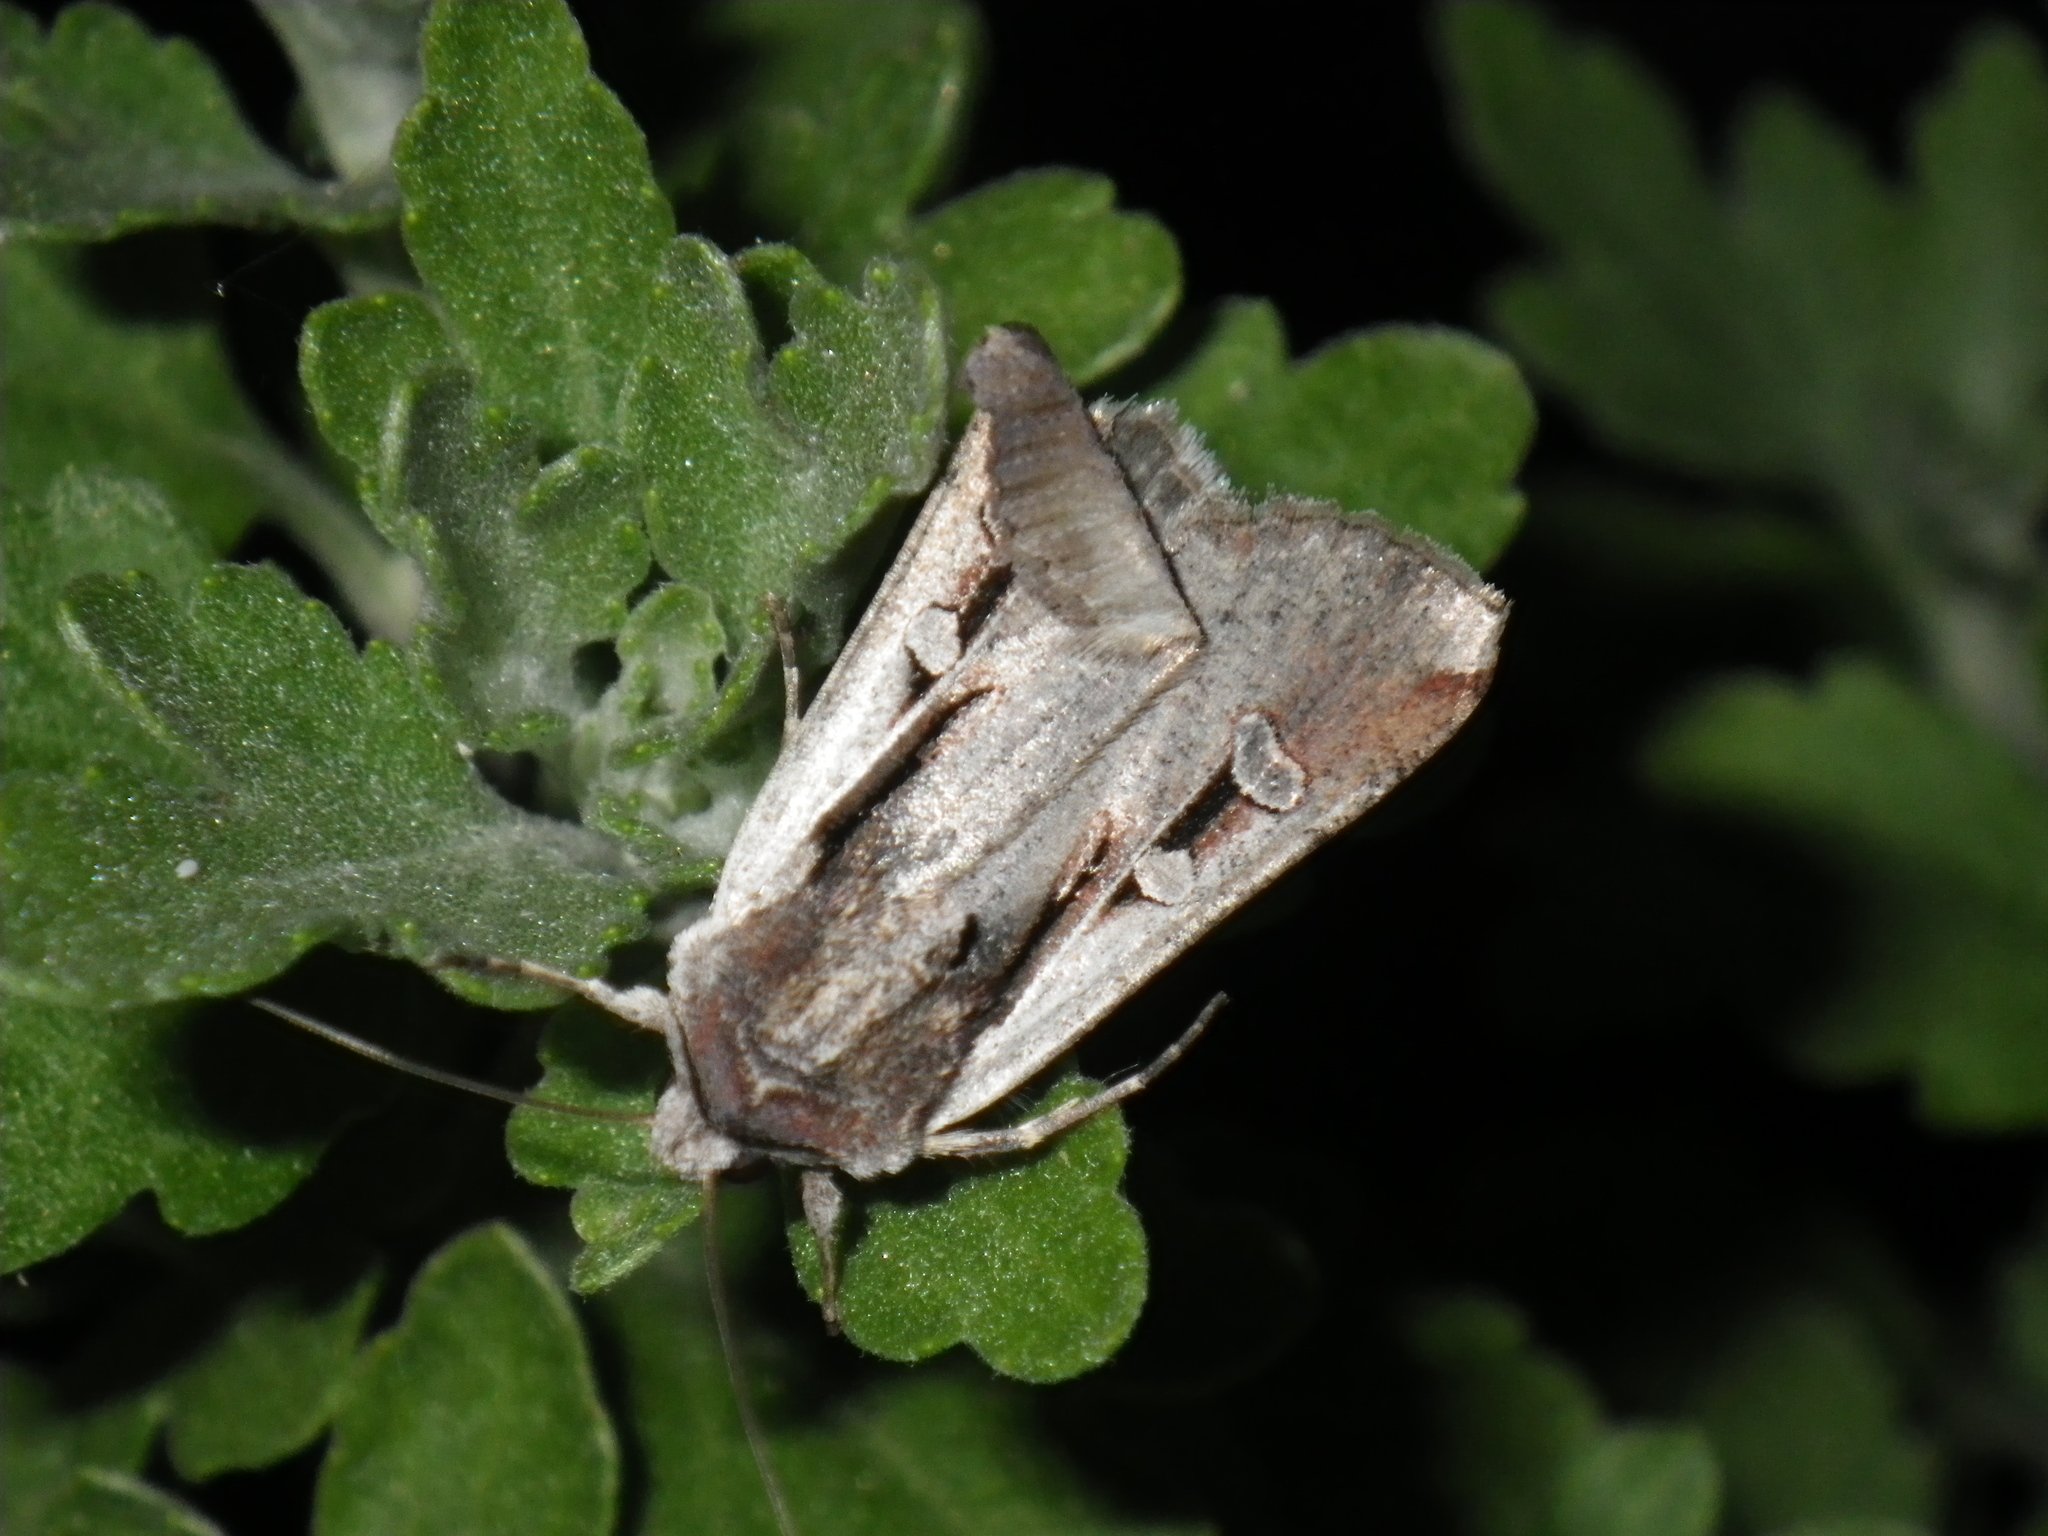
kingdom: Animalia
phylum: Arthropoda
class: Insecta
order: Lepidoptera
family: Noctuidae
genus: Hemieuxoa
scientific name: Hemieuxoa rudens
